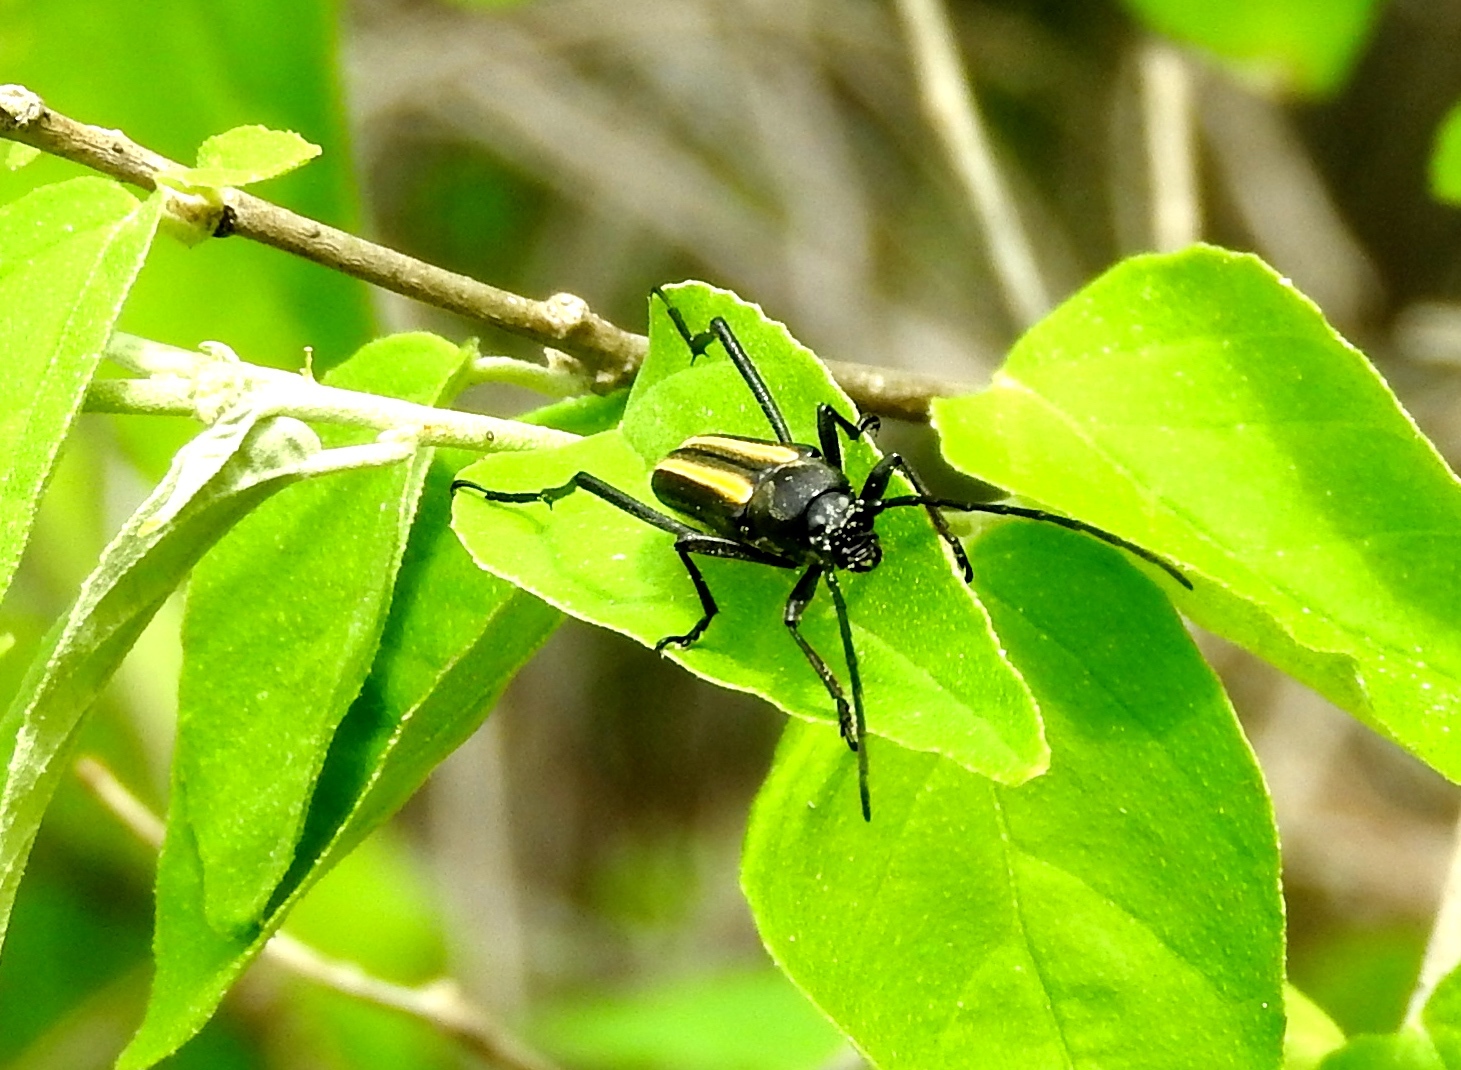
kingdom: Animalia
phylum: Arthropoda
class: Insecta
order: Coleoptera
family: Cerambycidae
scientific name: Cerambycidae
